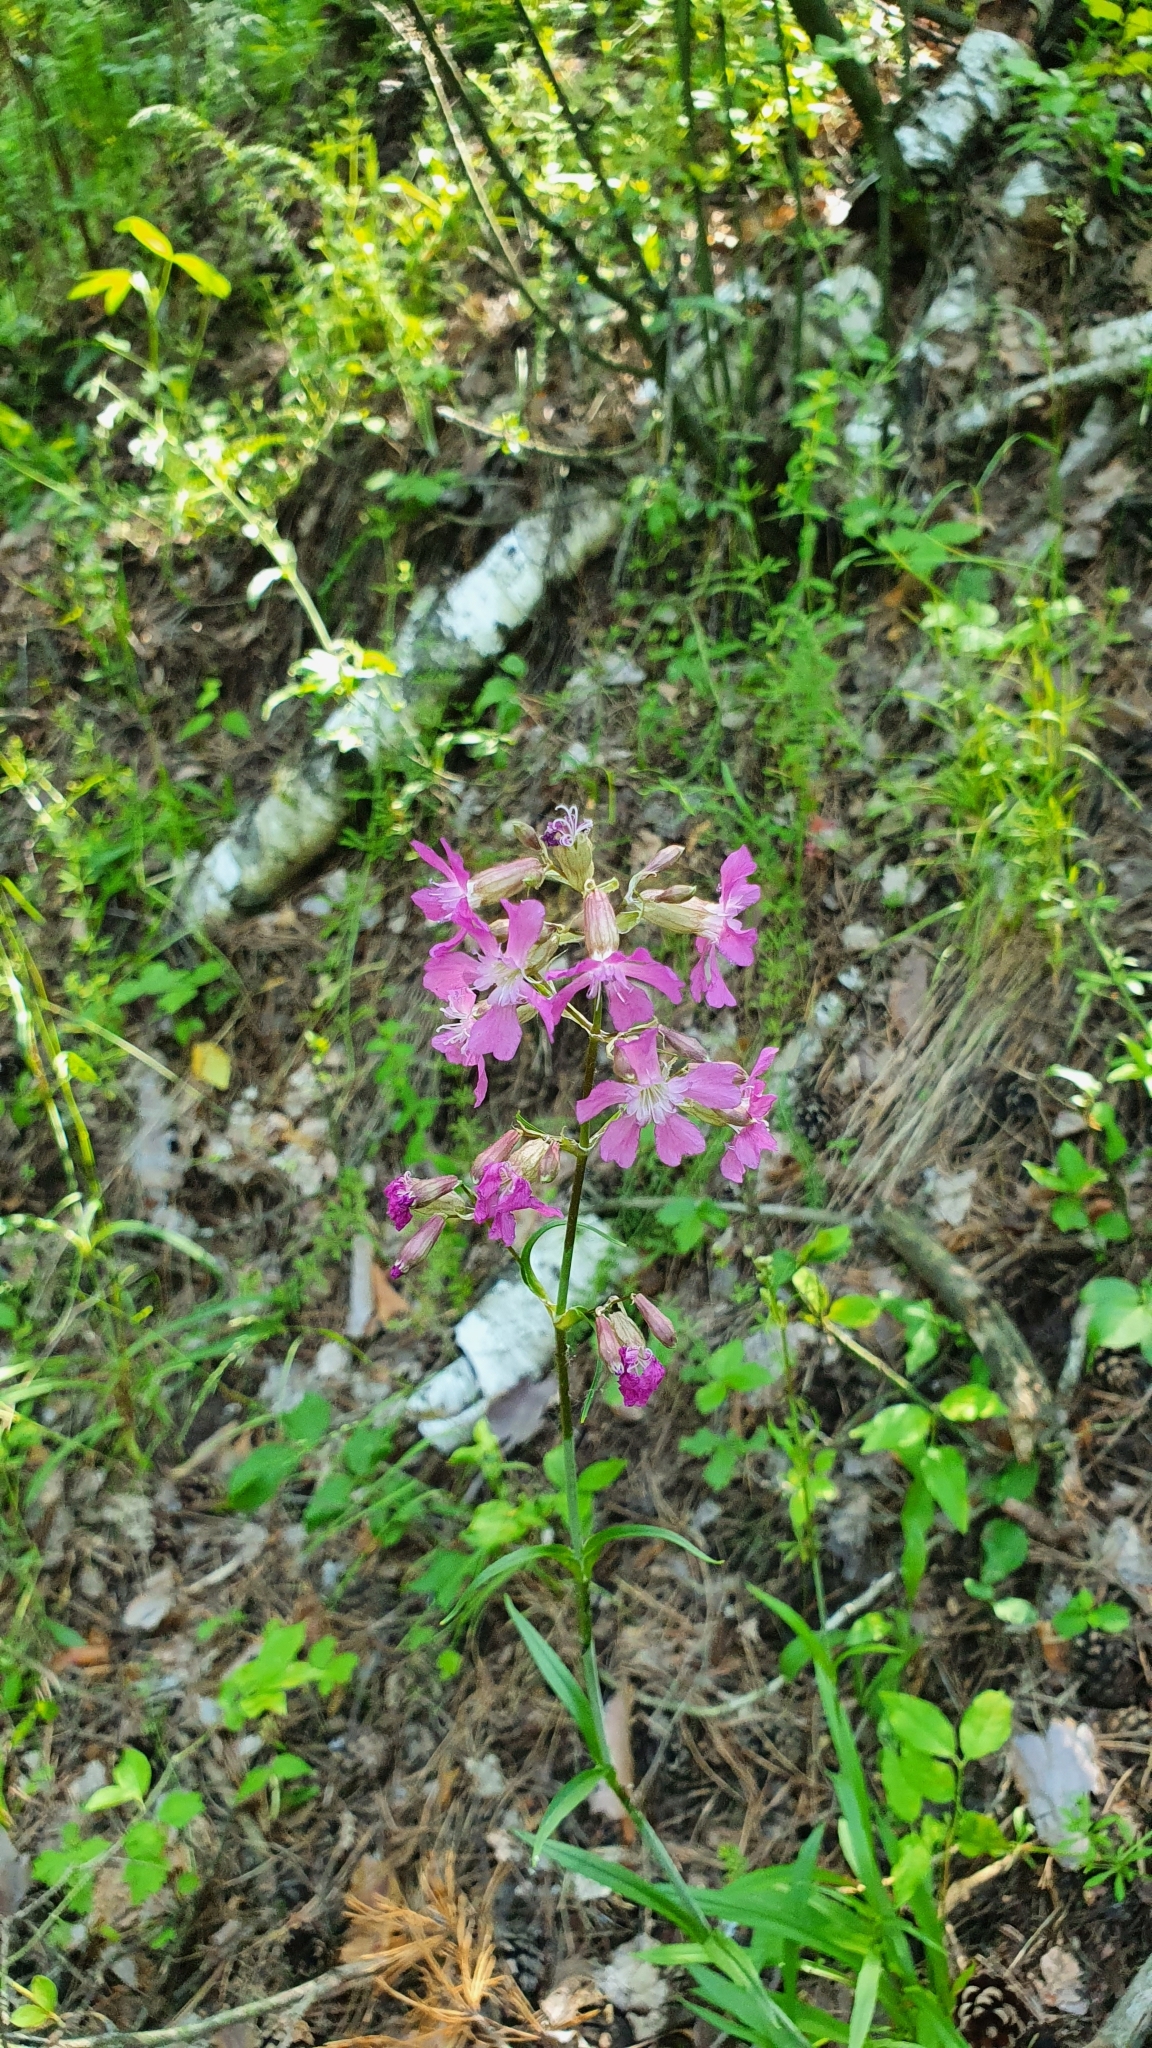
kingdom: Plantae
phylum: Tracheophyta
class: Magnoliopsida
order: Caryophyllales
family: Caryophyllaceae
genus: Viscaria
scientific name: Viscaria vulgaris
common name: Clammy campion
